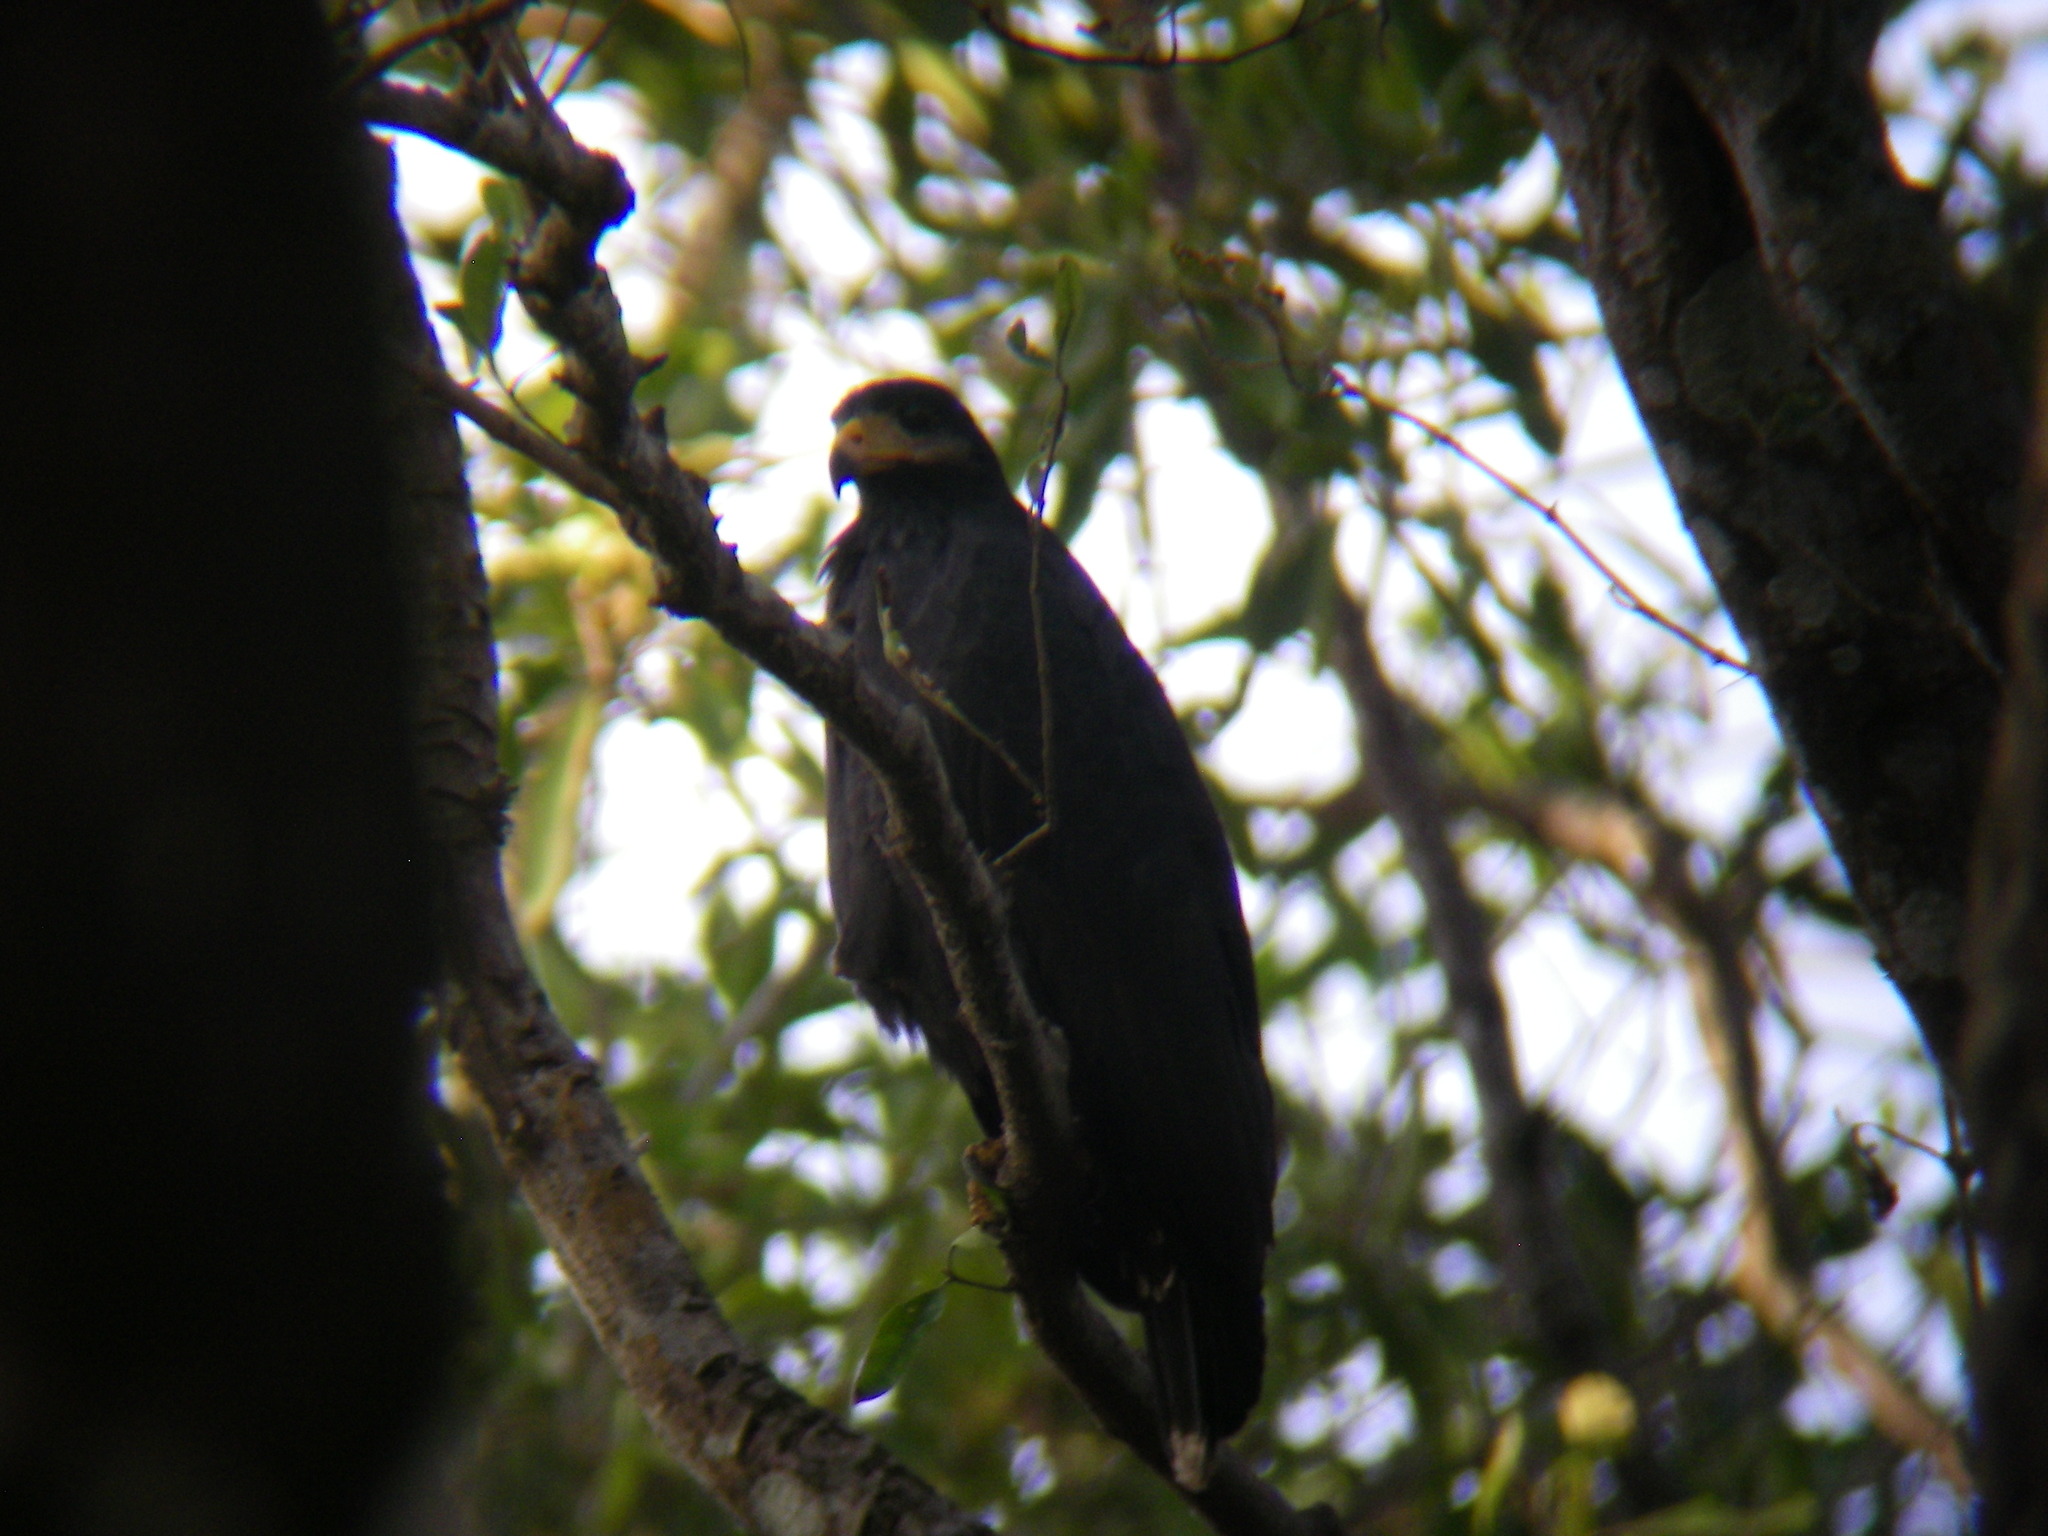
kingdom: Animalia
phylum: Chordata
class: Aves
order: Accipitriformes
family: Accipitridae
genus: Buteogallus
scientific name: Buteogallus anthracinus
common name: Common black hawk
